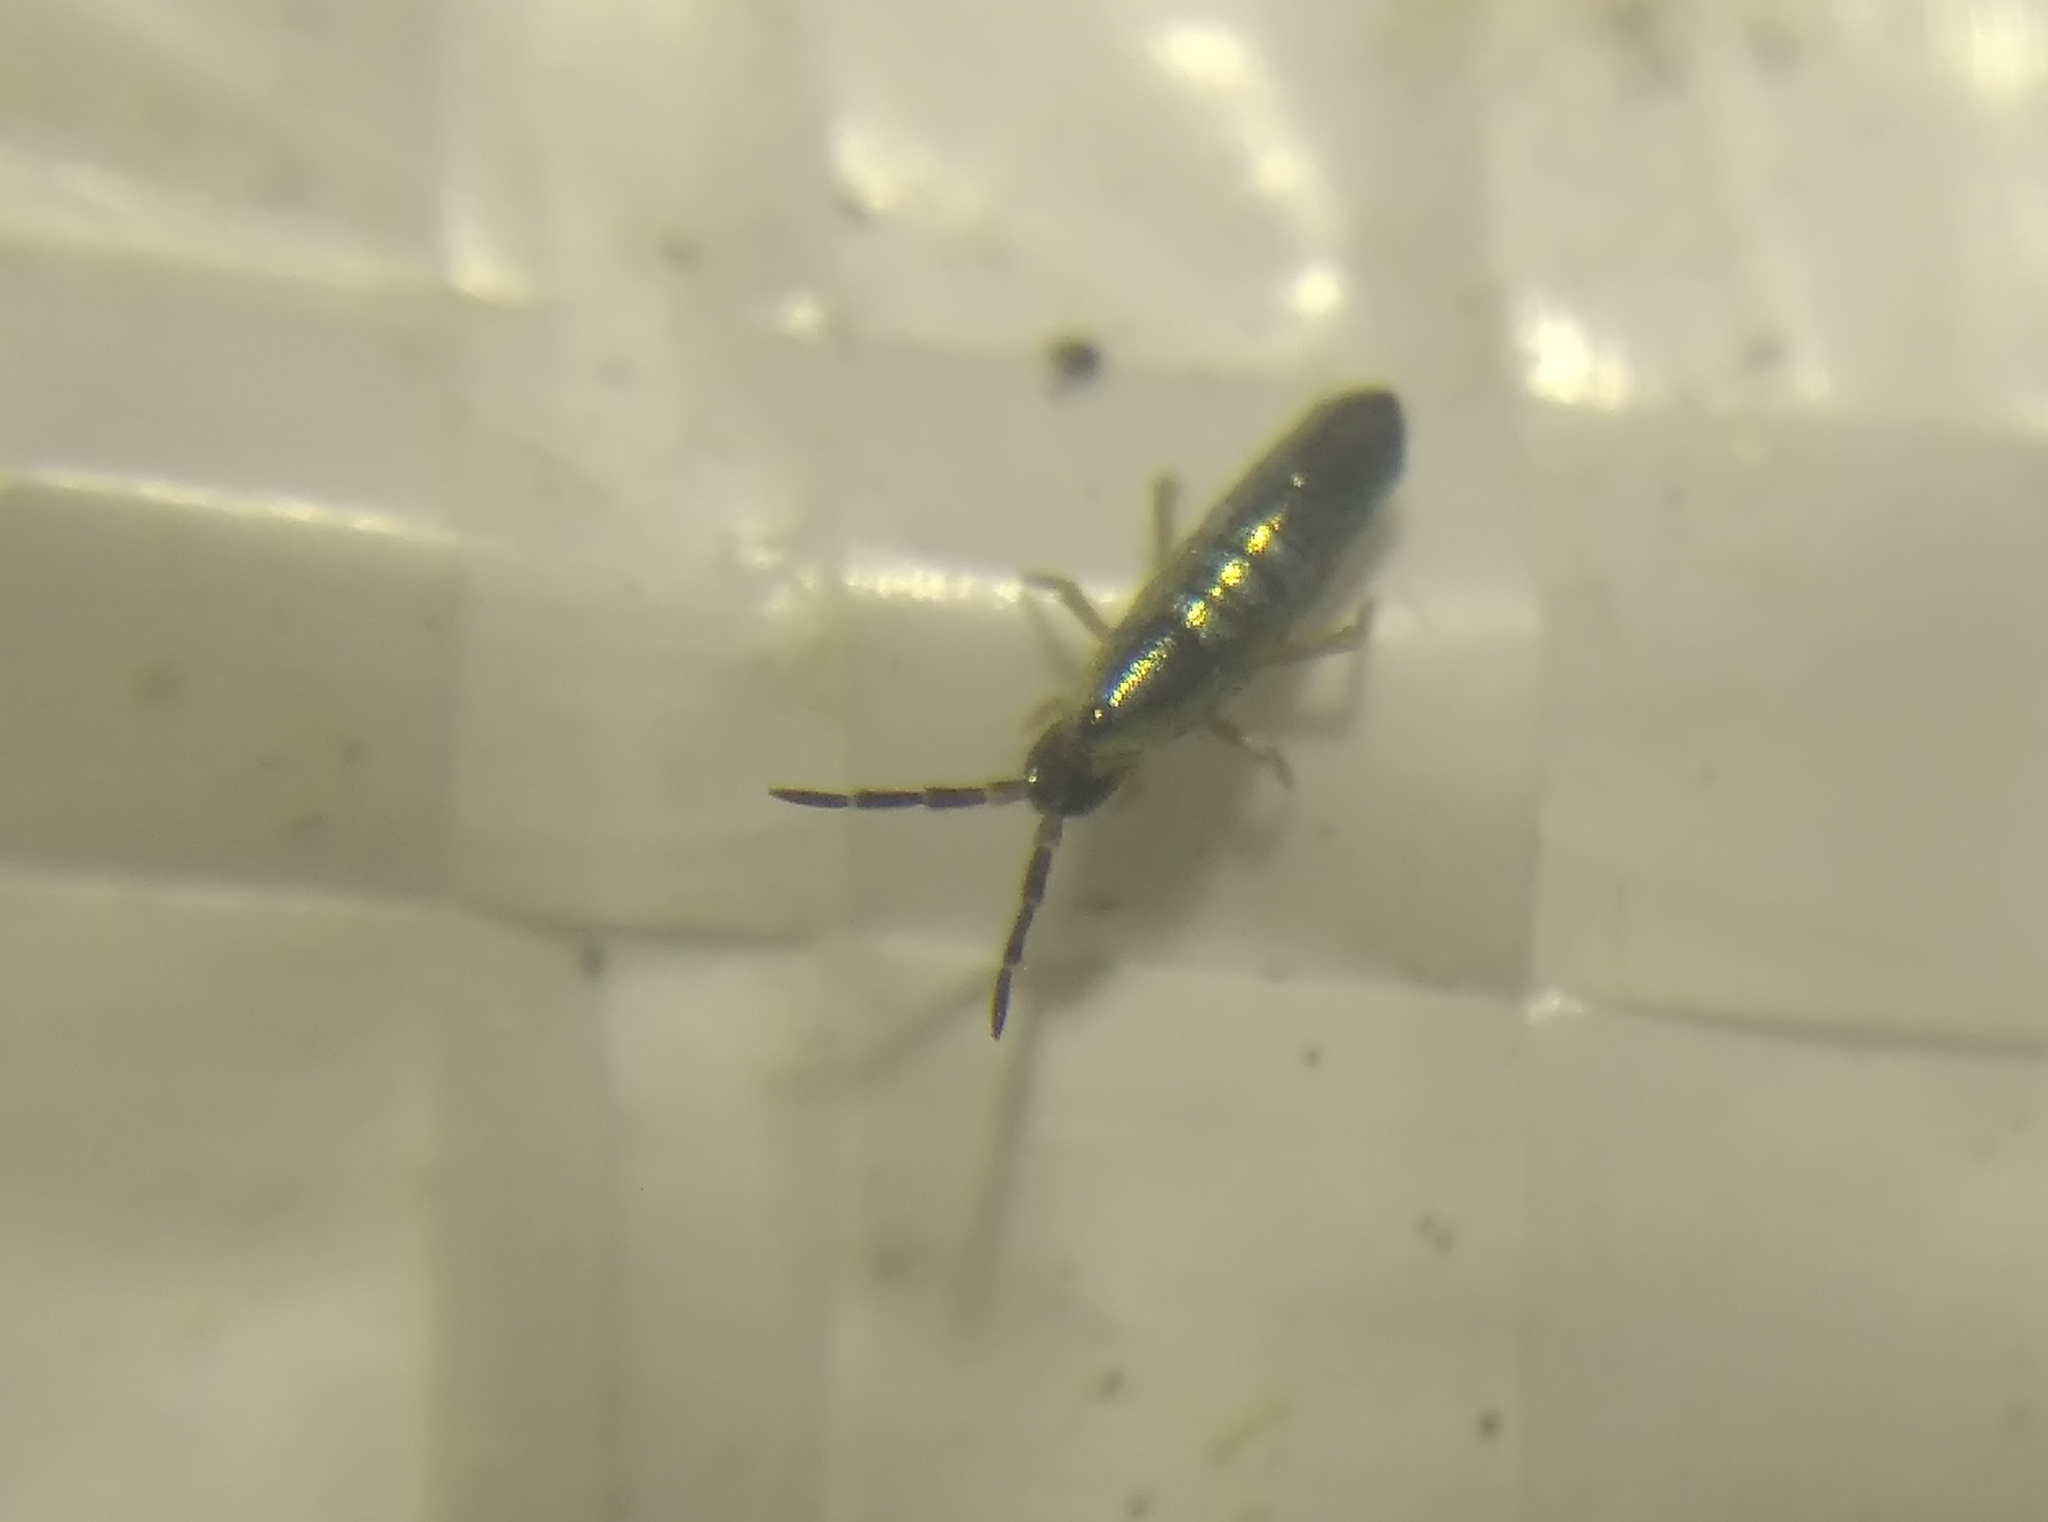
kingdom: Animalia
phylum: Arthropoda
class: Collembola
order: Entomobryomorpha
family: Entomobryidae
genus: Lepidocyrtus
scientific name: Lepidocyrtus paradoxus
